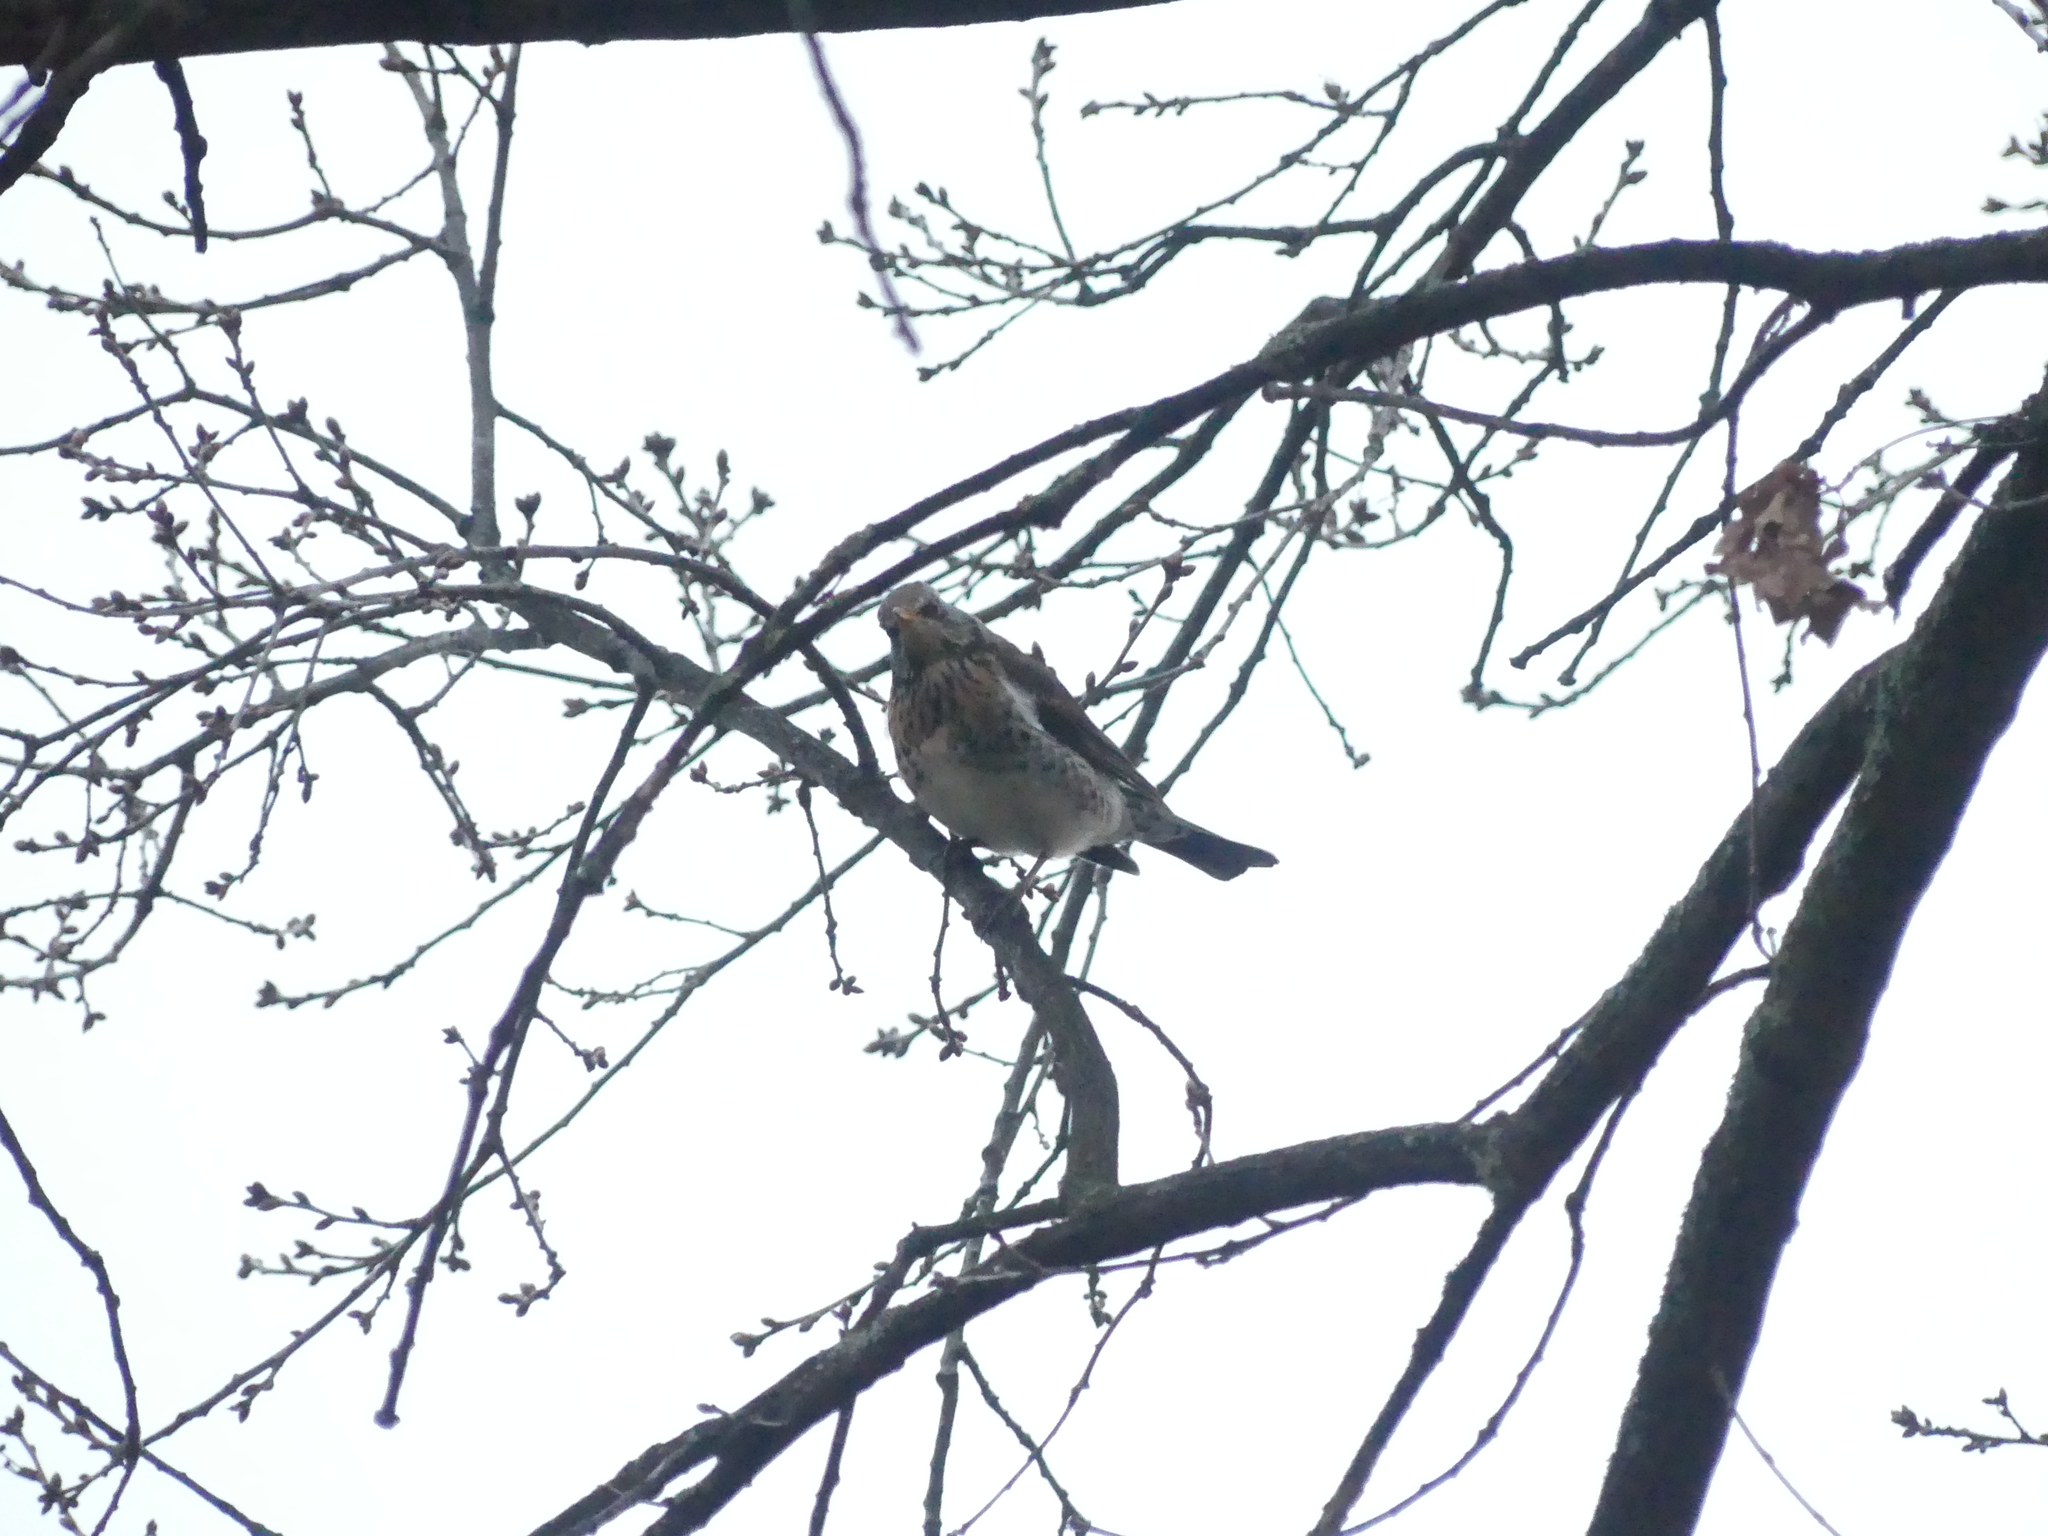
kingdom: Animalia
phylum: Chordata
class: Aves
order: Passeriformes
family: Turdidae
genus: Turdus
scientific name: Turdus pilaris
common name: Fieldfare
